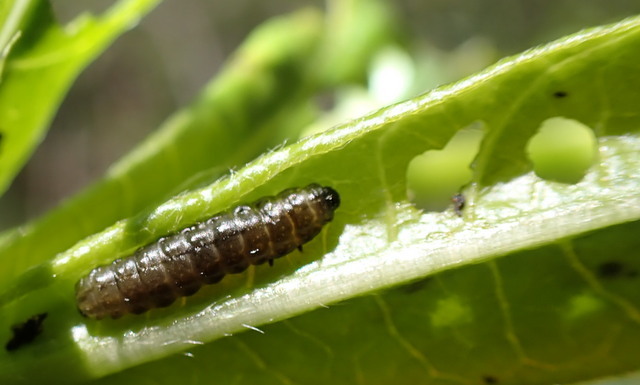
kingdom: Animalia
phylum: Arthropoda
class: Insecta
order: Coleoptera
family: Chrysomelidae
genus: Agasicles
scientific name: Agasicles hygrophila
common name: Alligatorweed flea beetle
